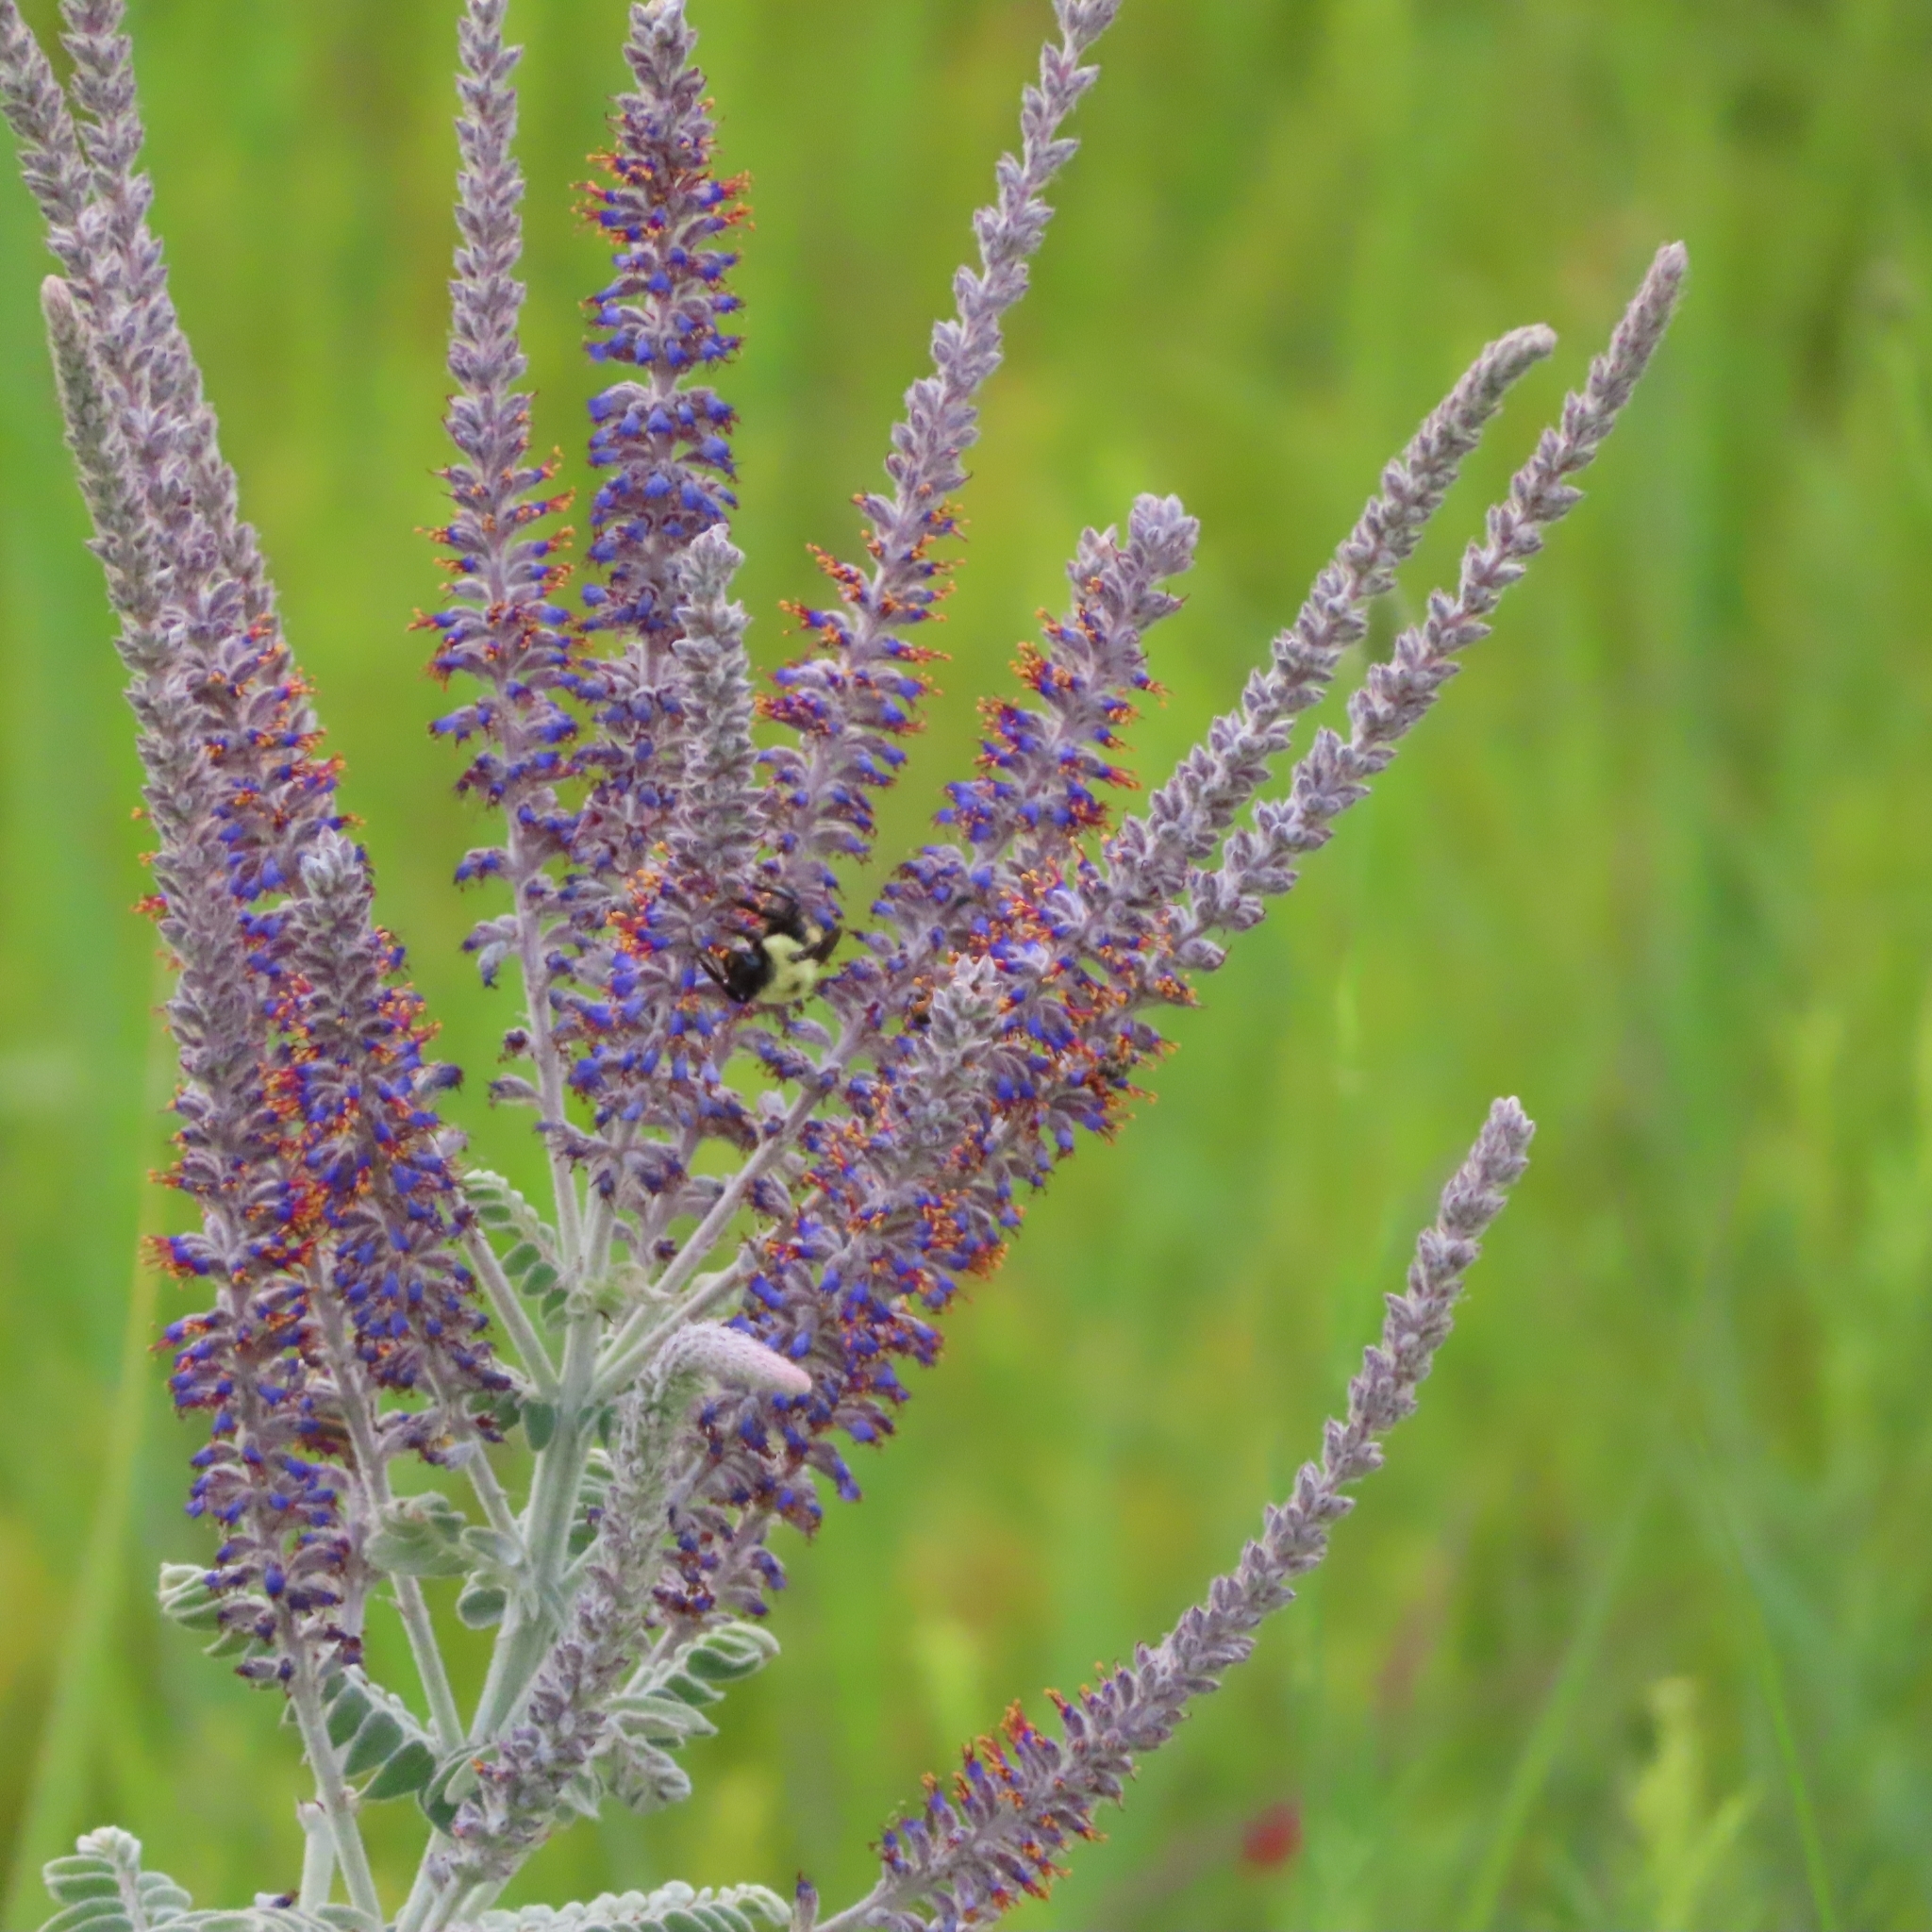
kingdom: Plantae
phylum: Tracheophyta
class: Magnoliopsida
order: Fabales
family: Fabaceae
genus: Amorpha
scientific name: Amorpha canescens
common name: Leadplant
